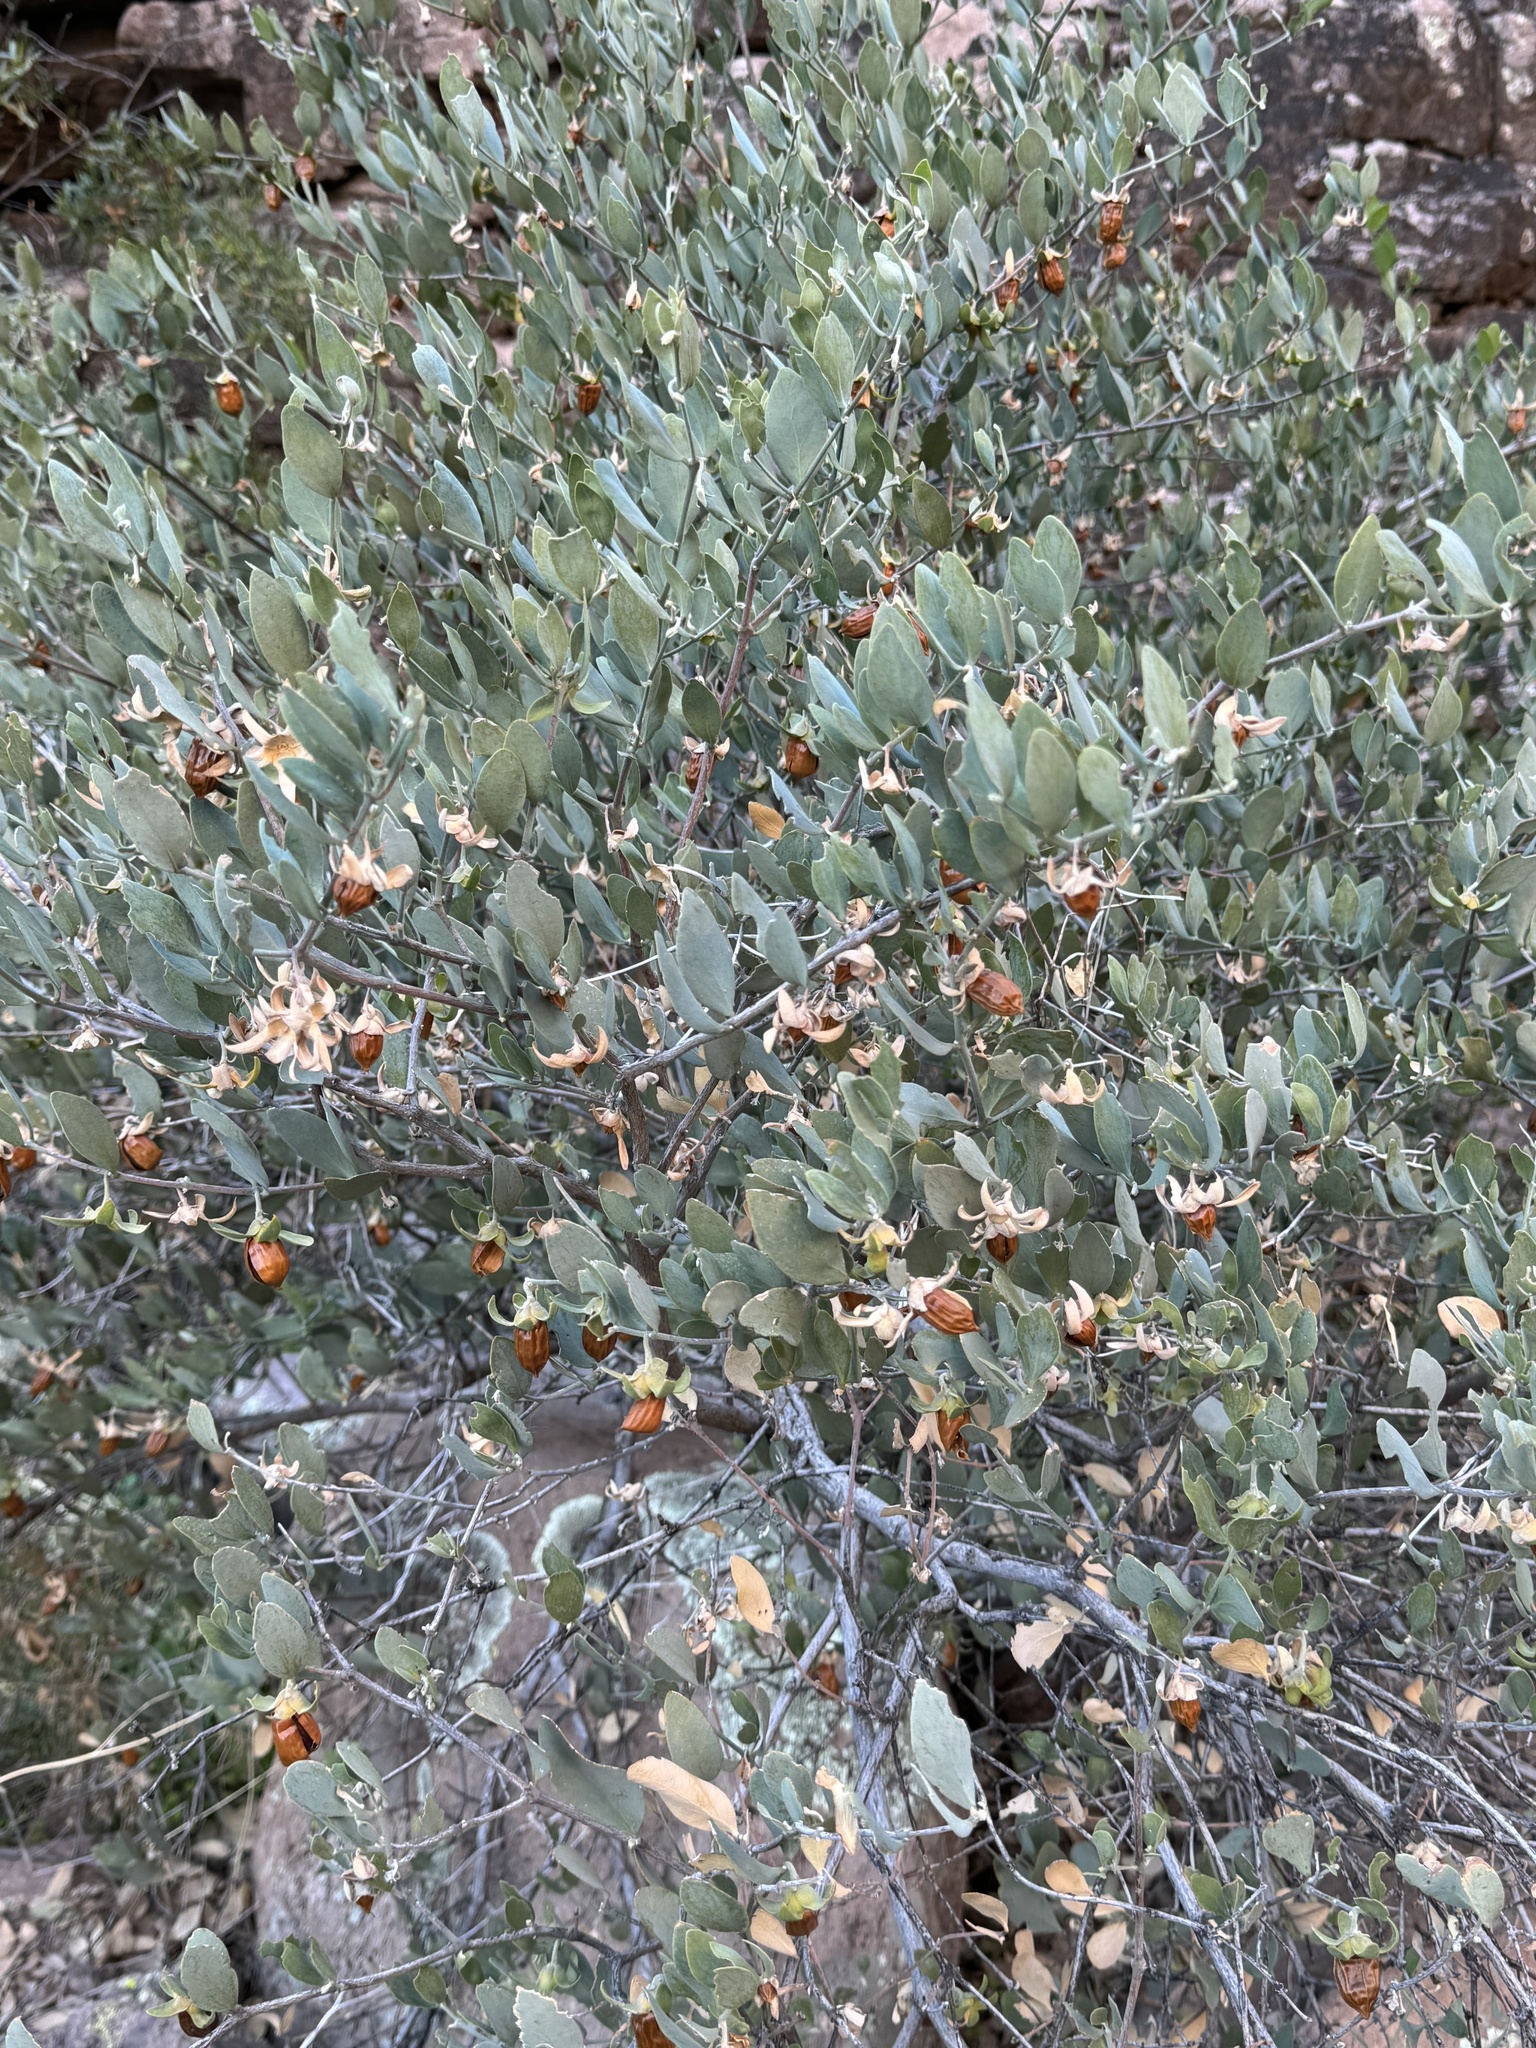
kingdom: Plantae
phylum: Tracheophyta
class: Magnoliopsida
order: Caryophyllales
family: Simmondsiaceae
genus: Simmondsia
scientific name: Simmondsia chinensis
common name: Jojoba
